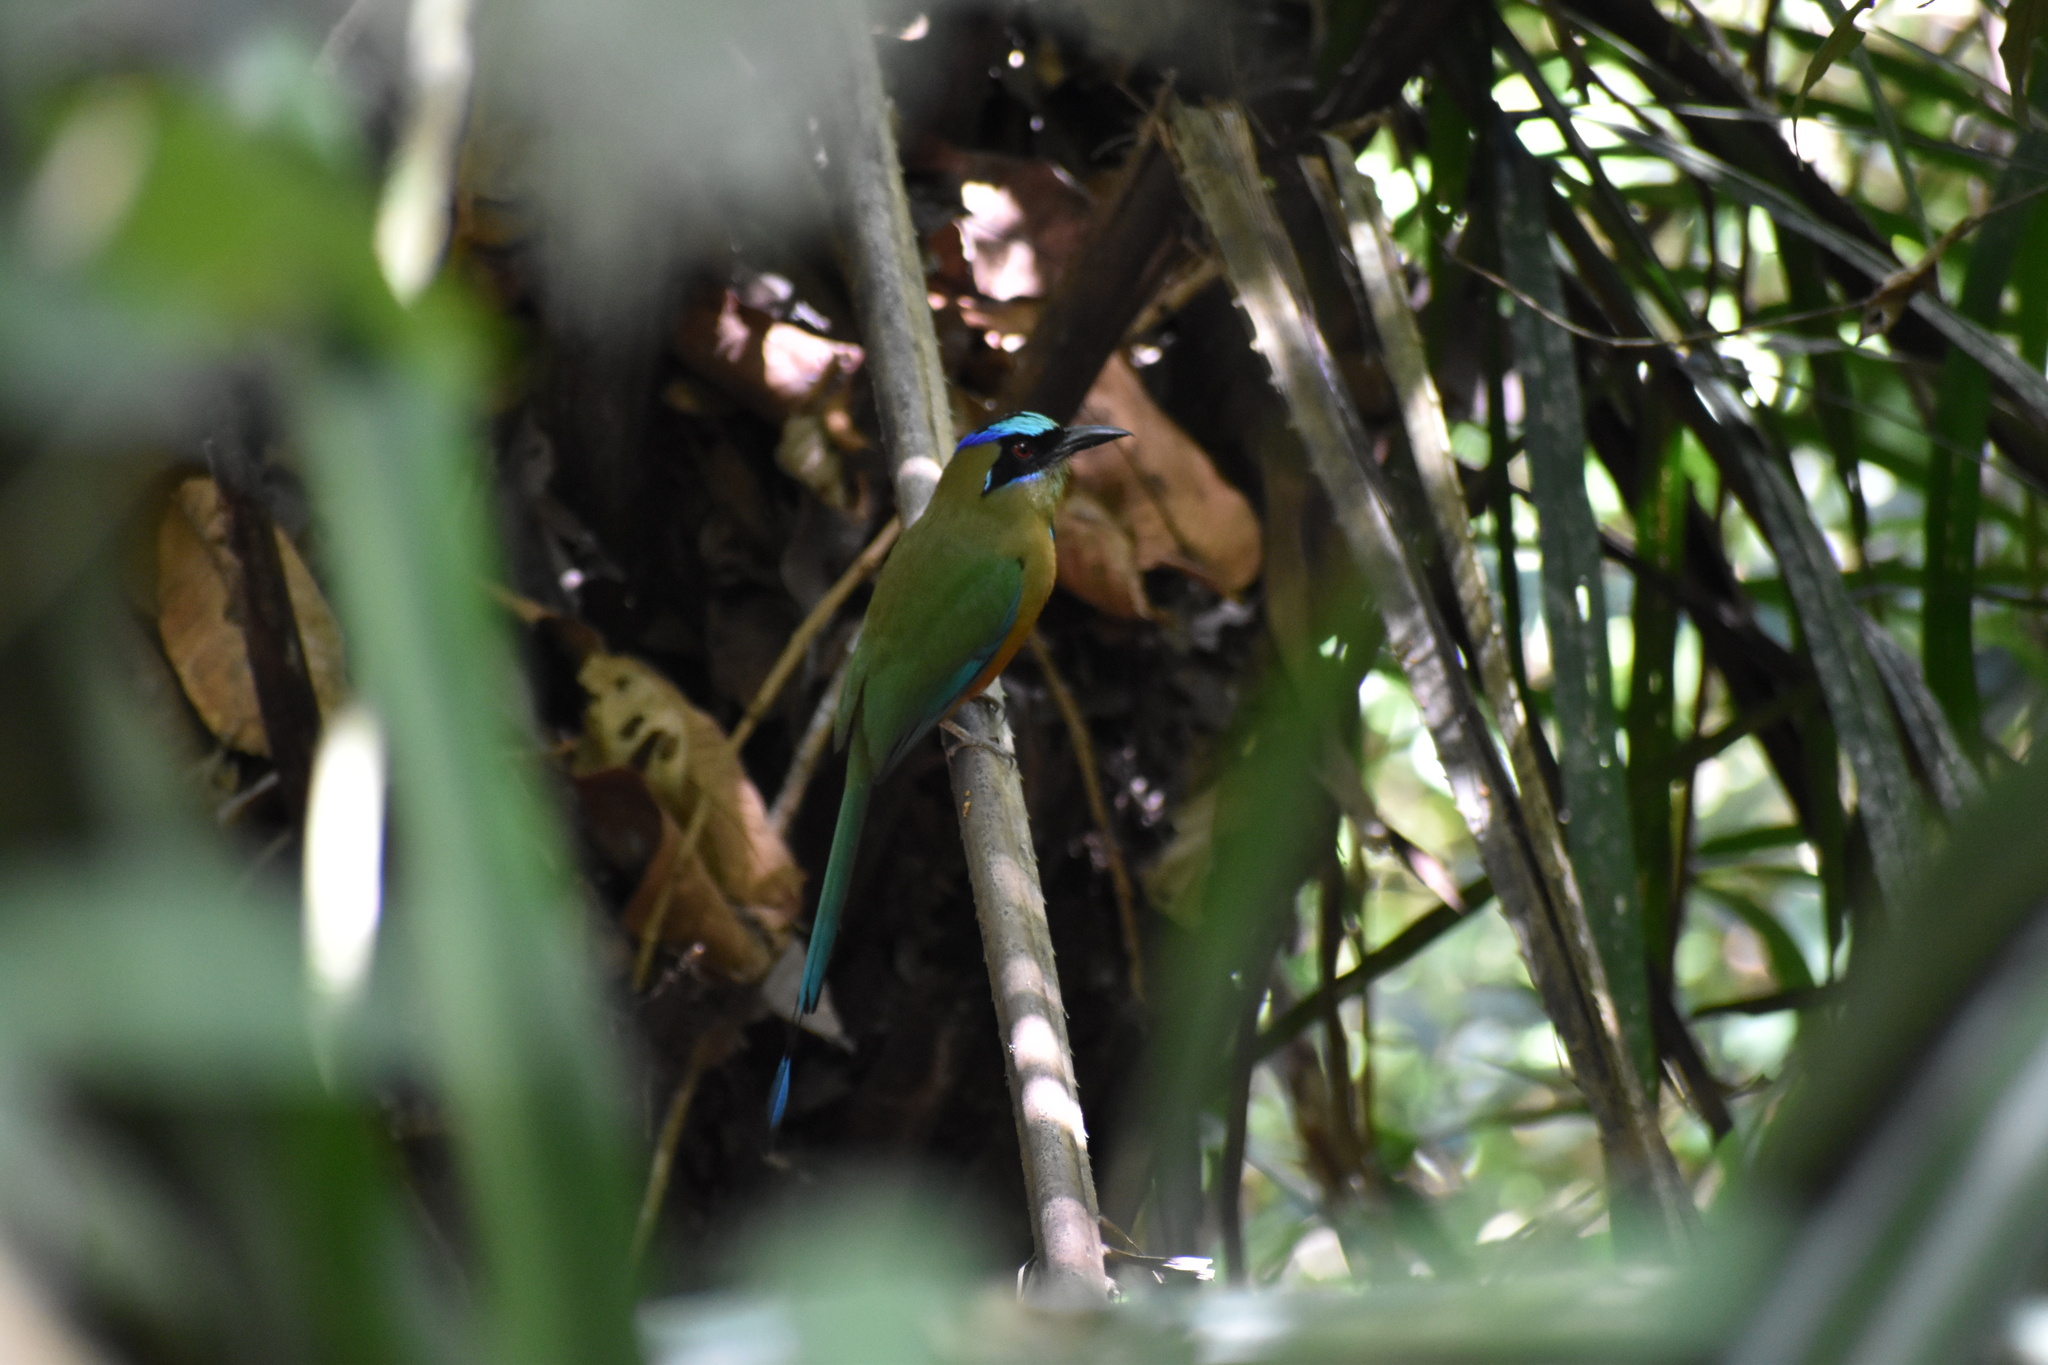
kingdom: Animalia
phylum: Chordata
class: Aves
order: Coraciiformes
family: Momotidae
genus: Momotus
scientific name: Momotus subrufescens
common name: Whooping motmot
